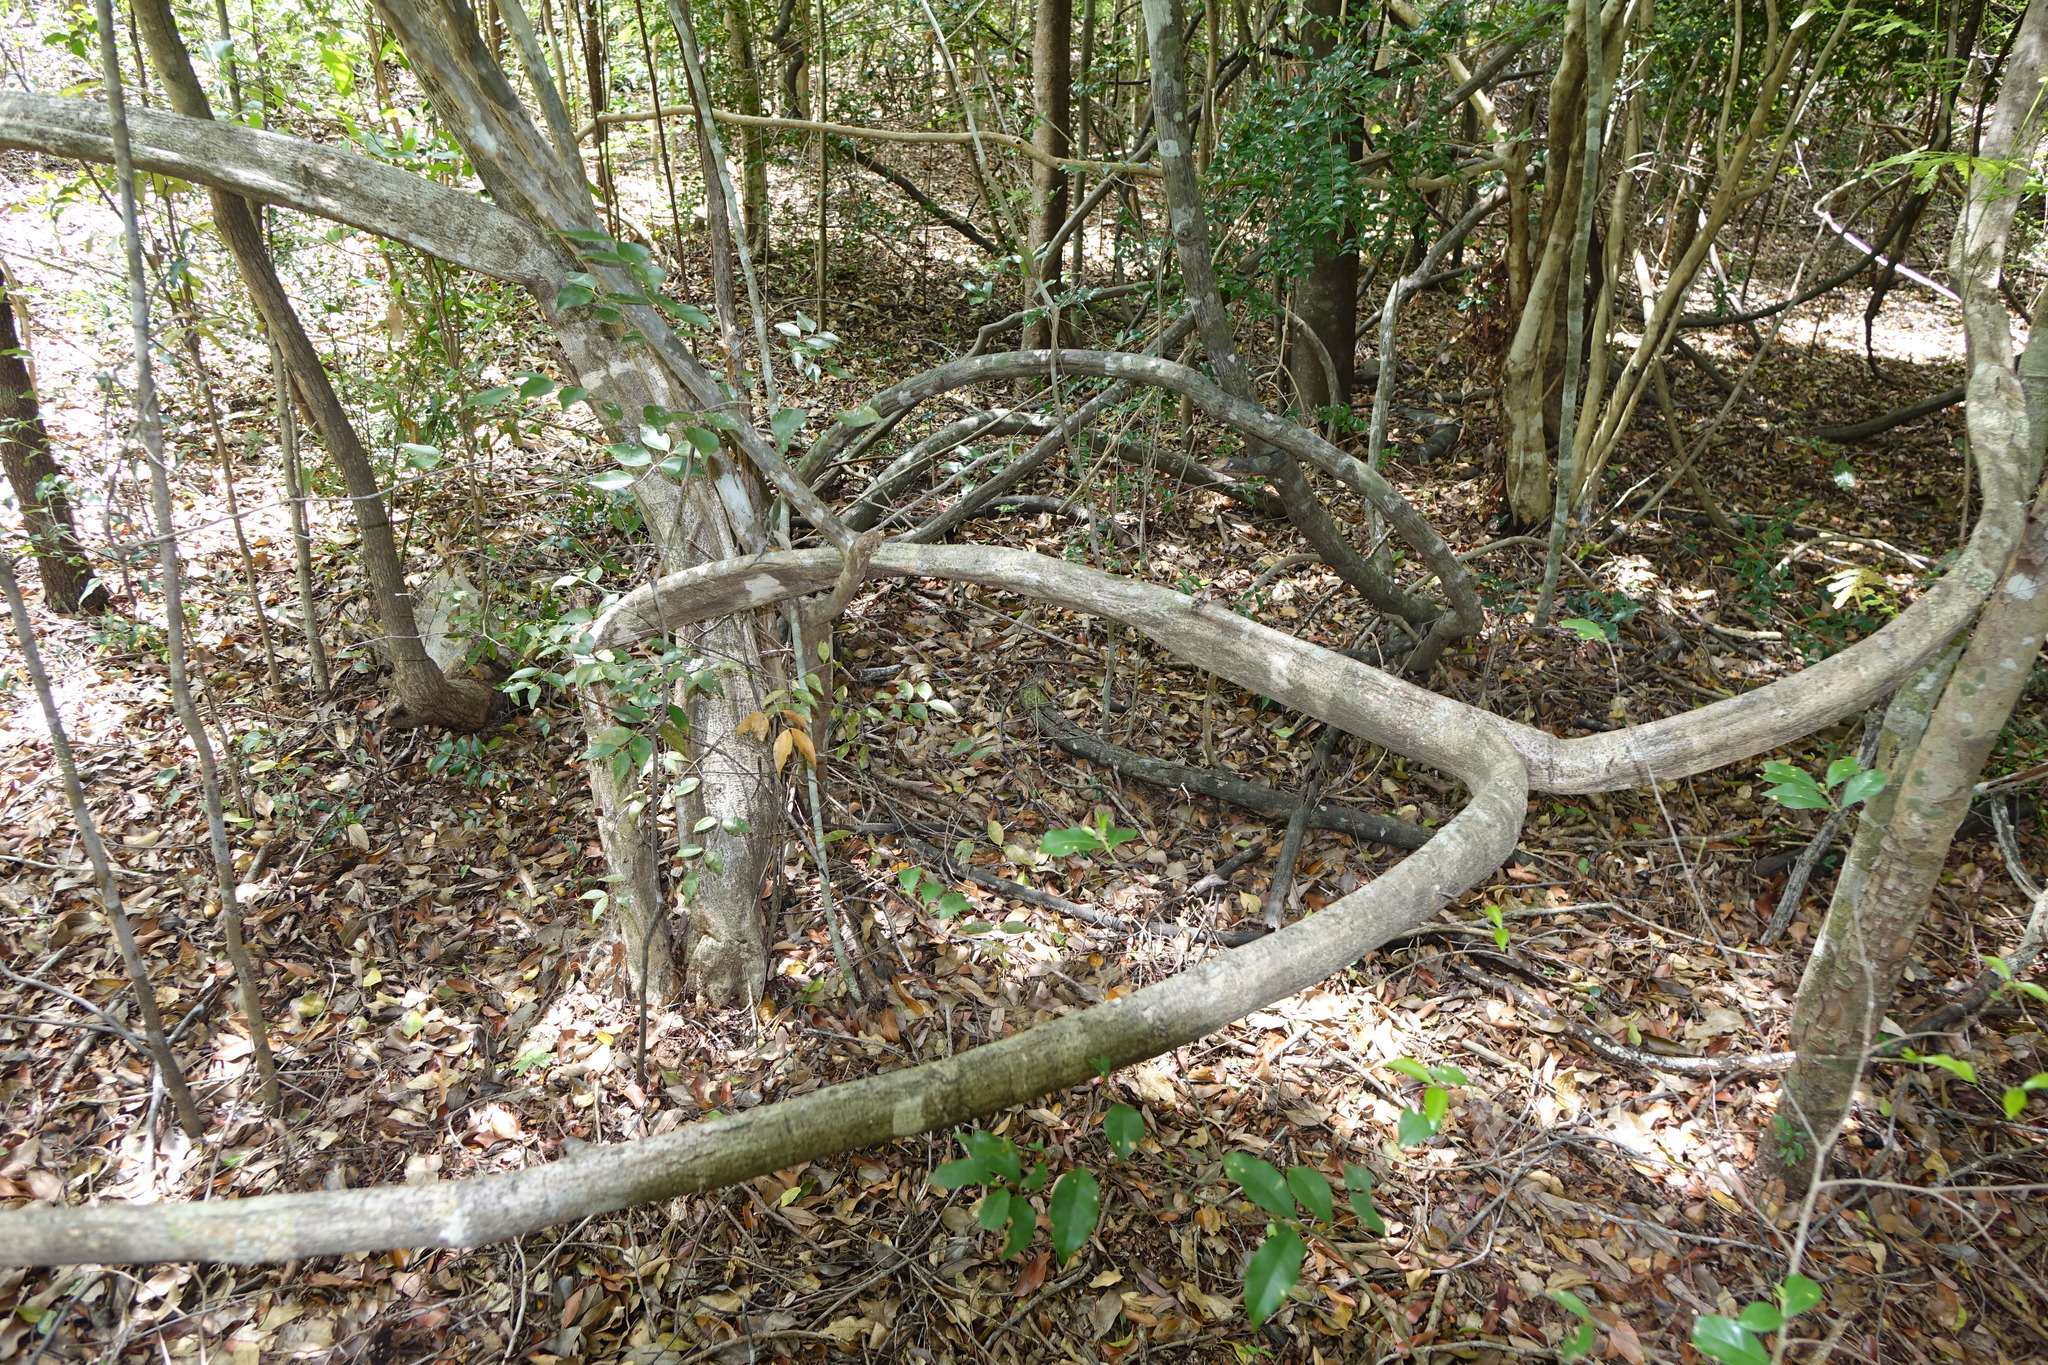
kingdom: Plantae
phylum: Tracheophyta
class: Magnoliopsida
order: Fabales
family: Fabaceae
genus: Dalbergia
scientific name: Dalbergia bracteolata
